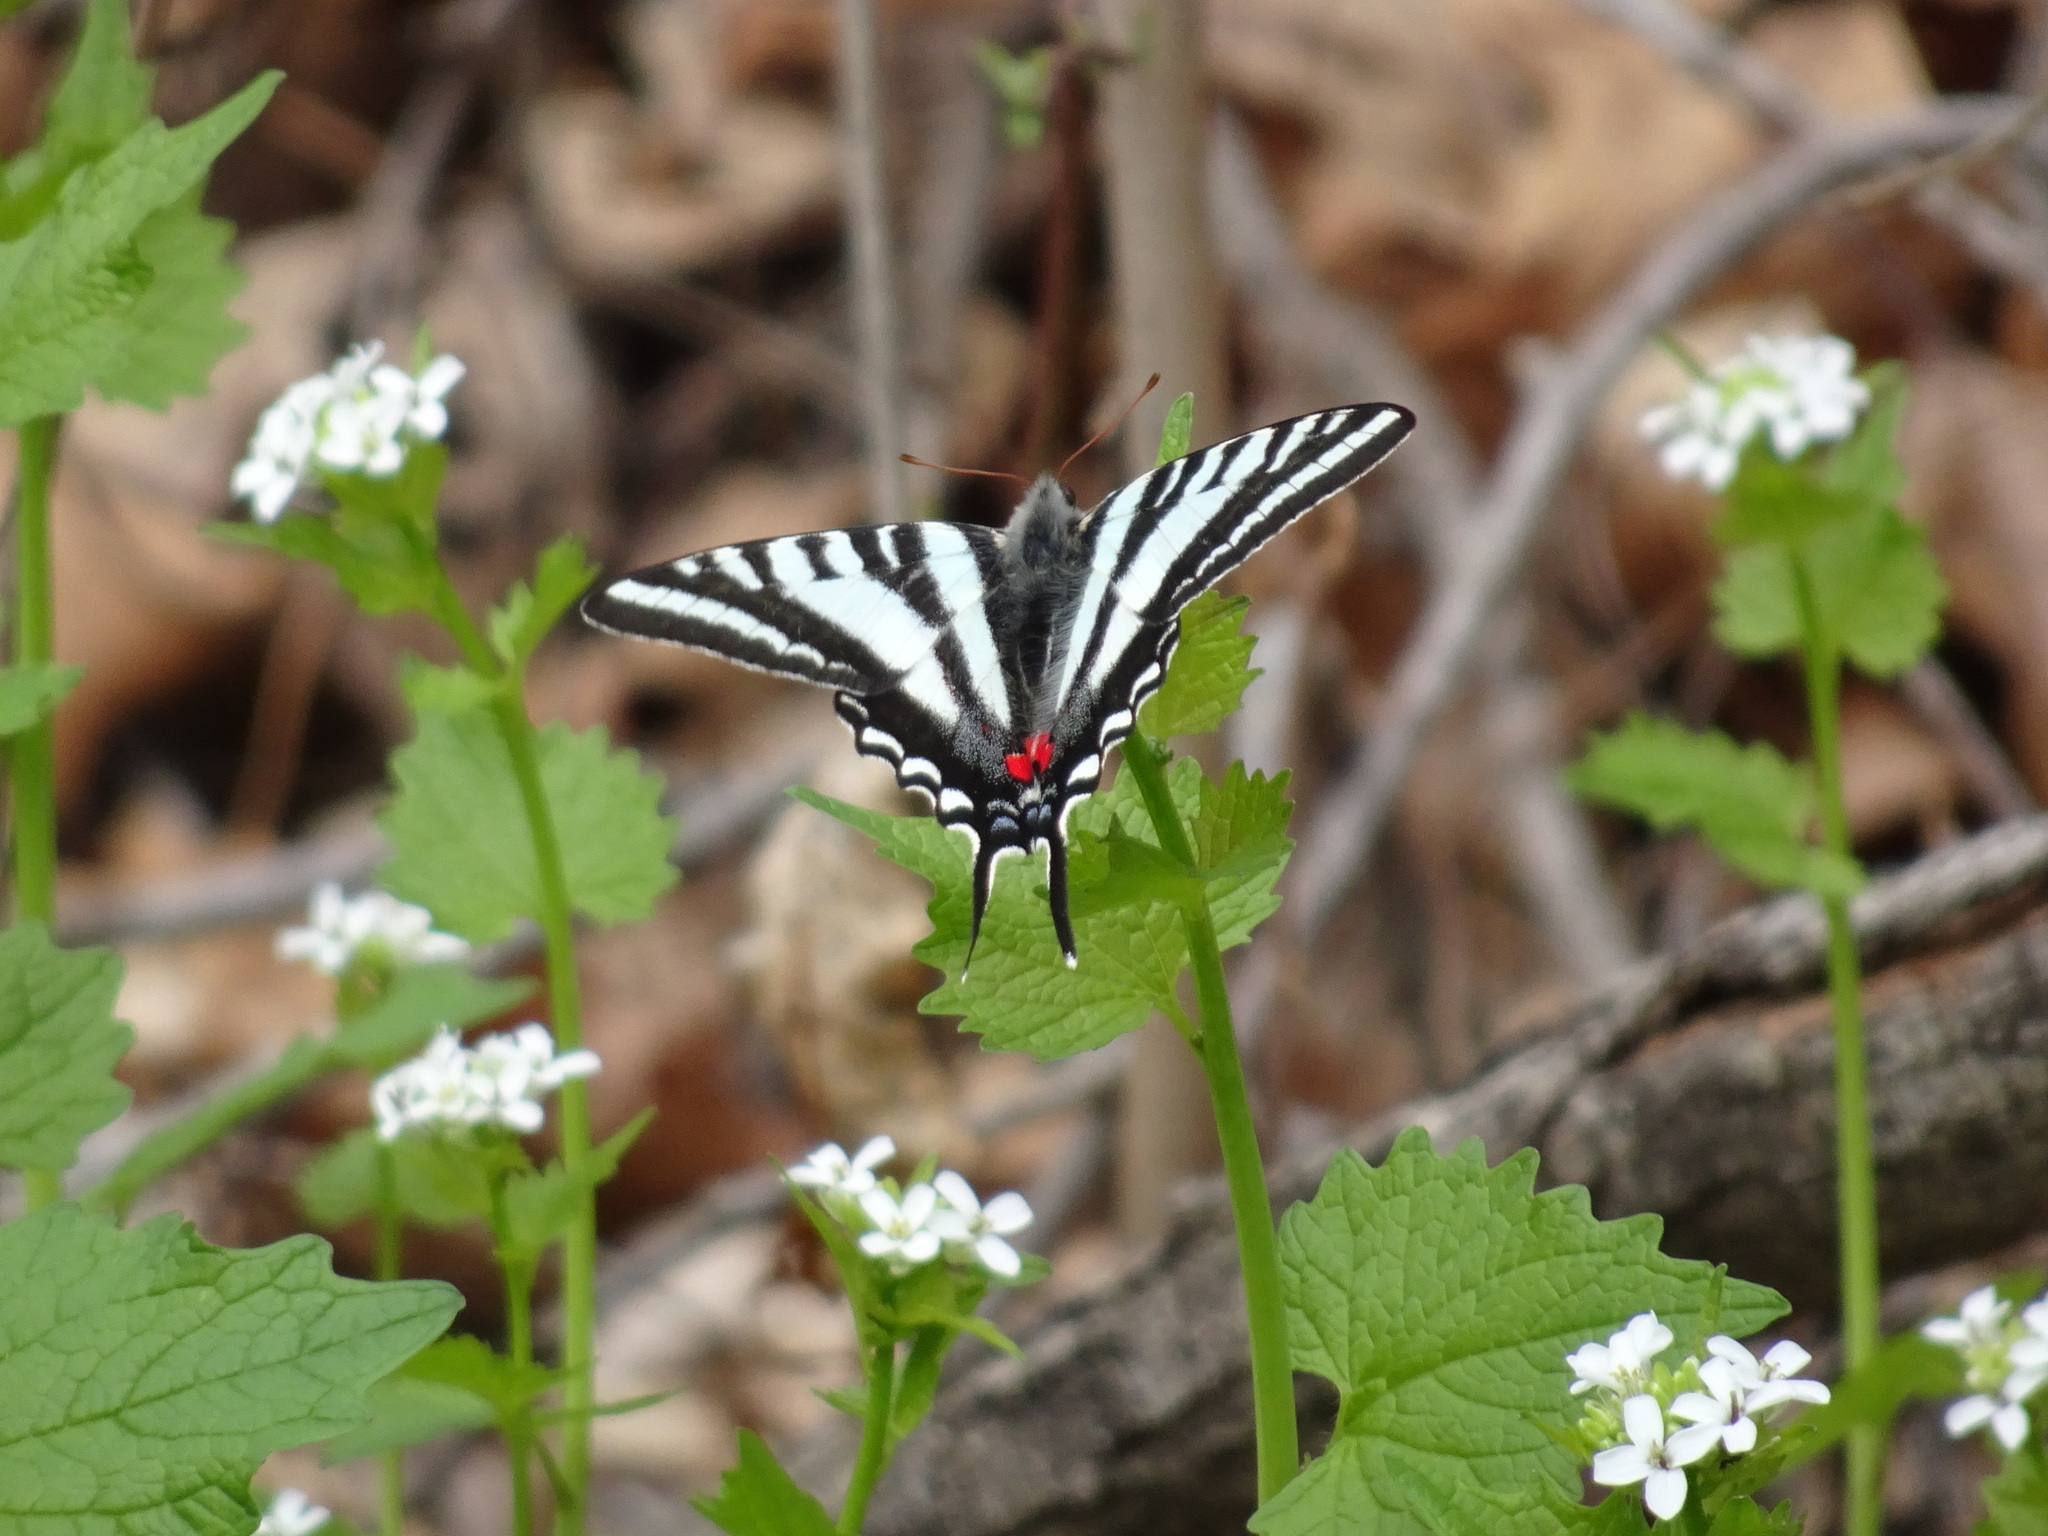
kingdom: Animalia
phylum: Arthropoda
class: Insecta
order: Lepidoptera
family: Papilionidae
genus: Protographium
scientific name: Protographium marcellus
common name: Zebra swallowtail
